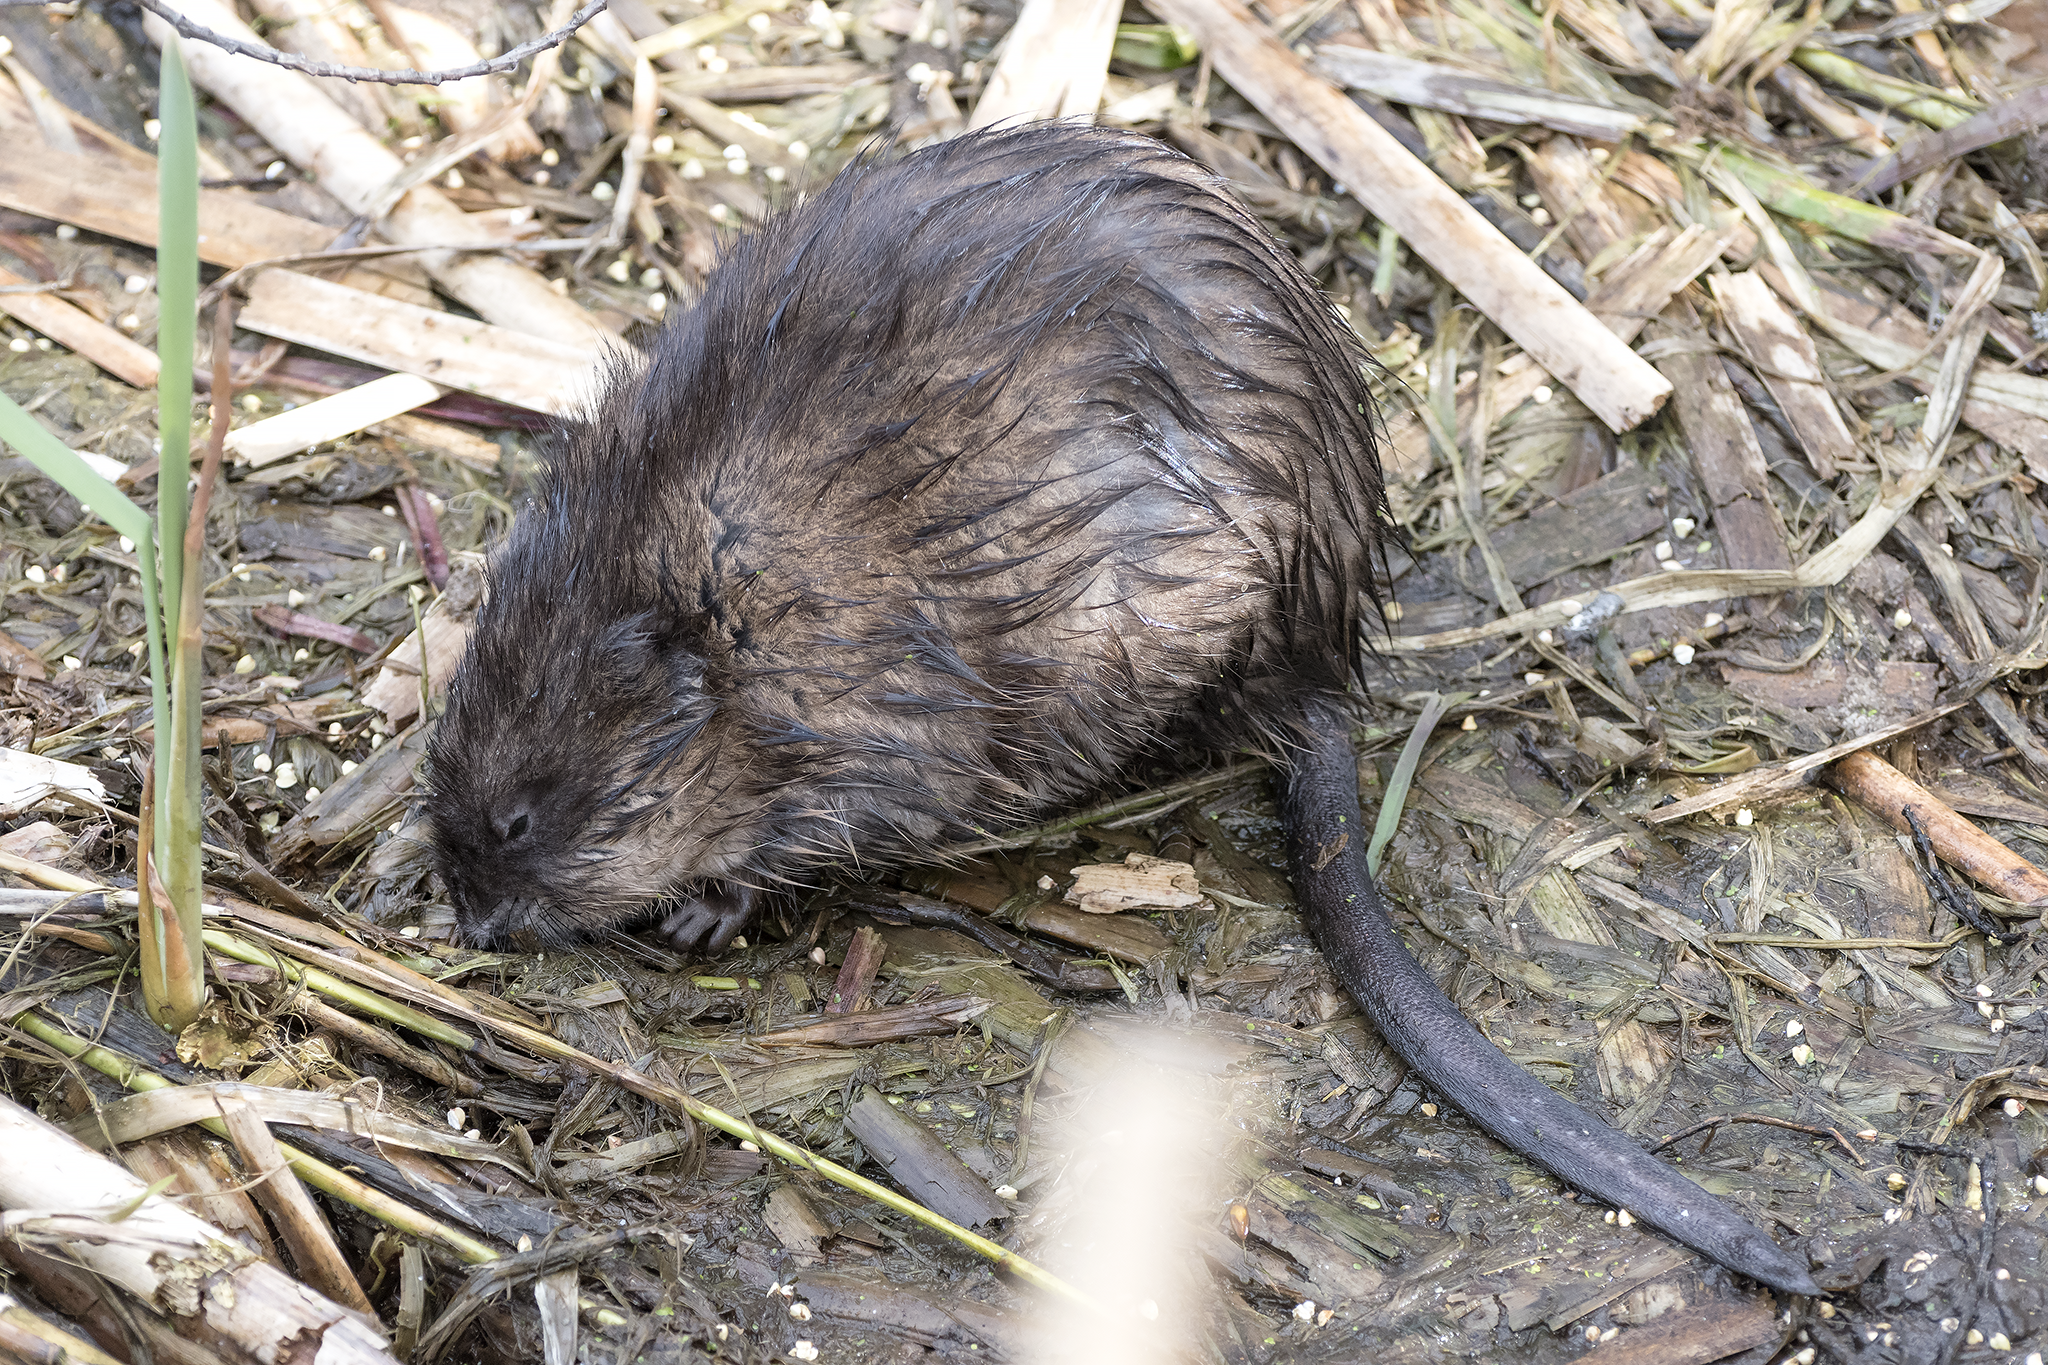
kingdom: Animalia
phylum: Chordata
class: Mammalia
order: Rodentia
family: Cricetidae
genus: Ondatra
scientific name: Ondatra zibethicus
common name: Muskrat
